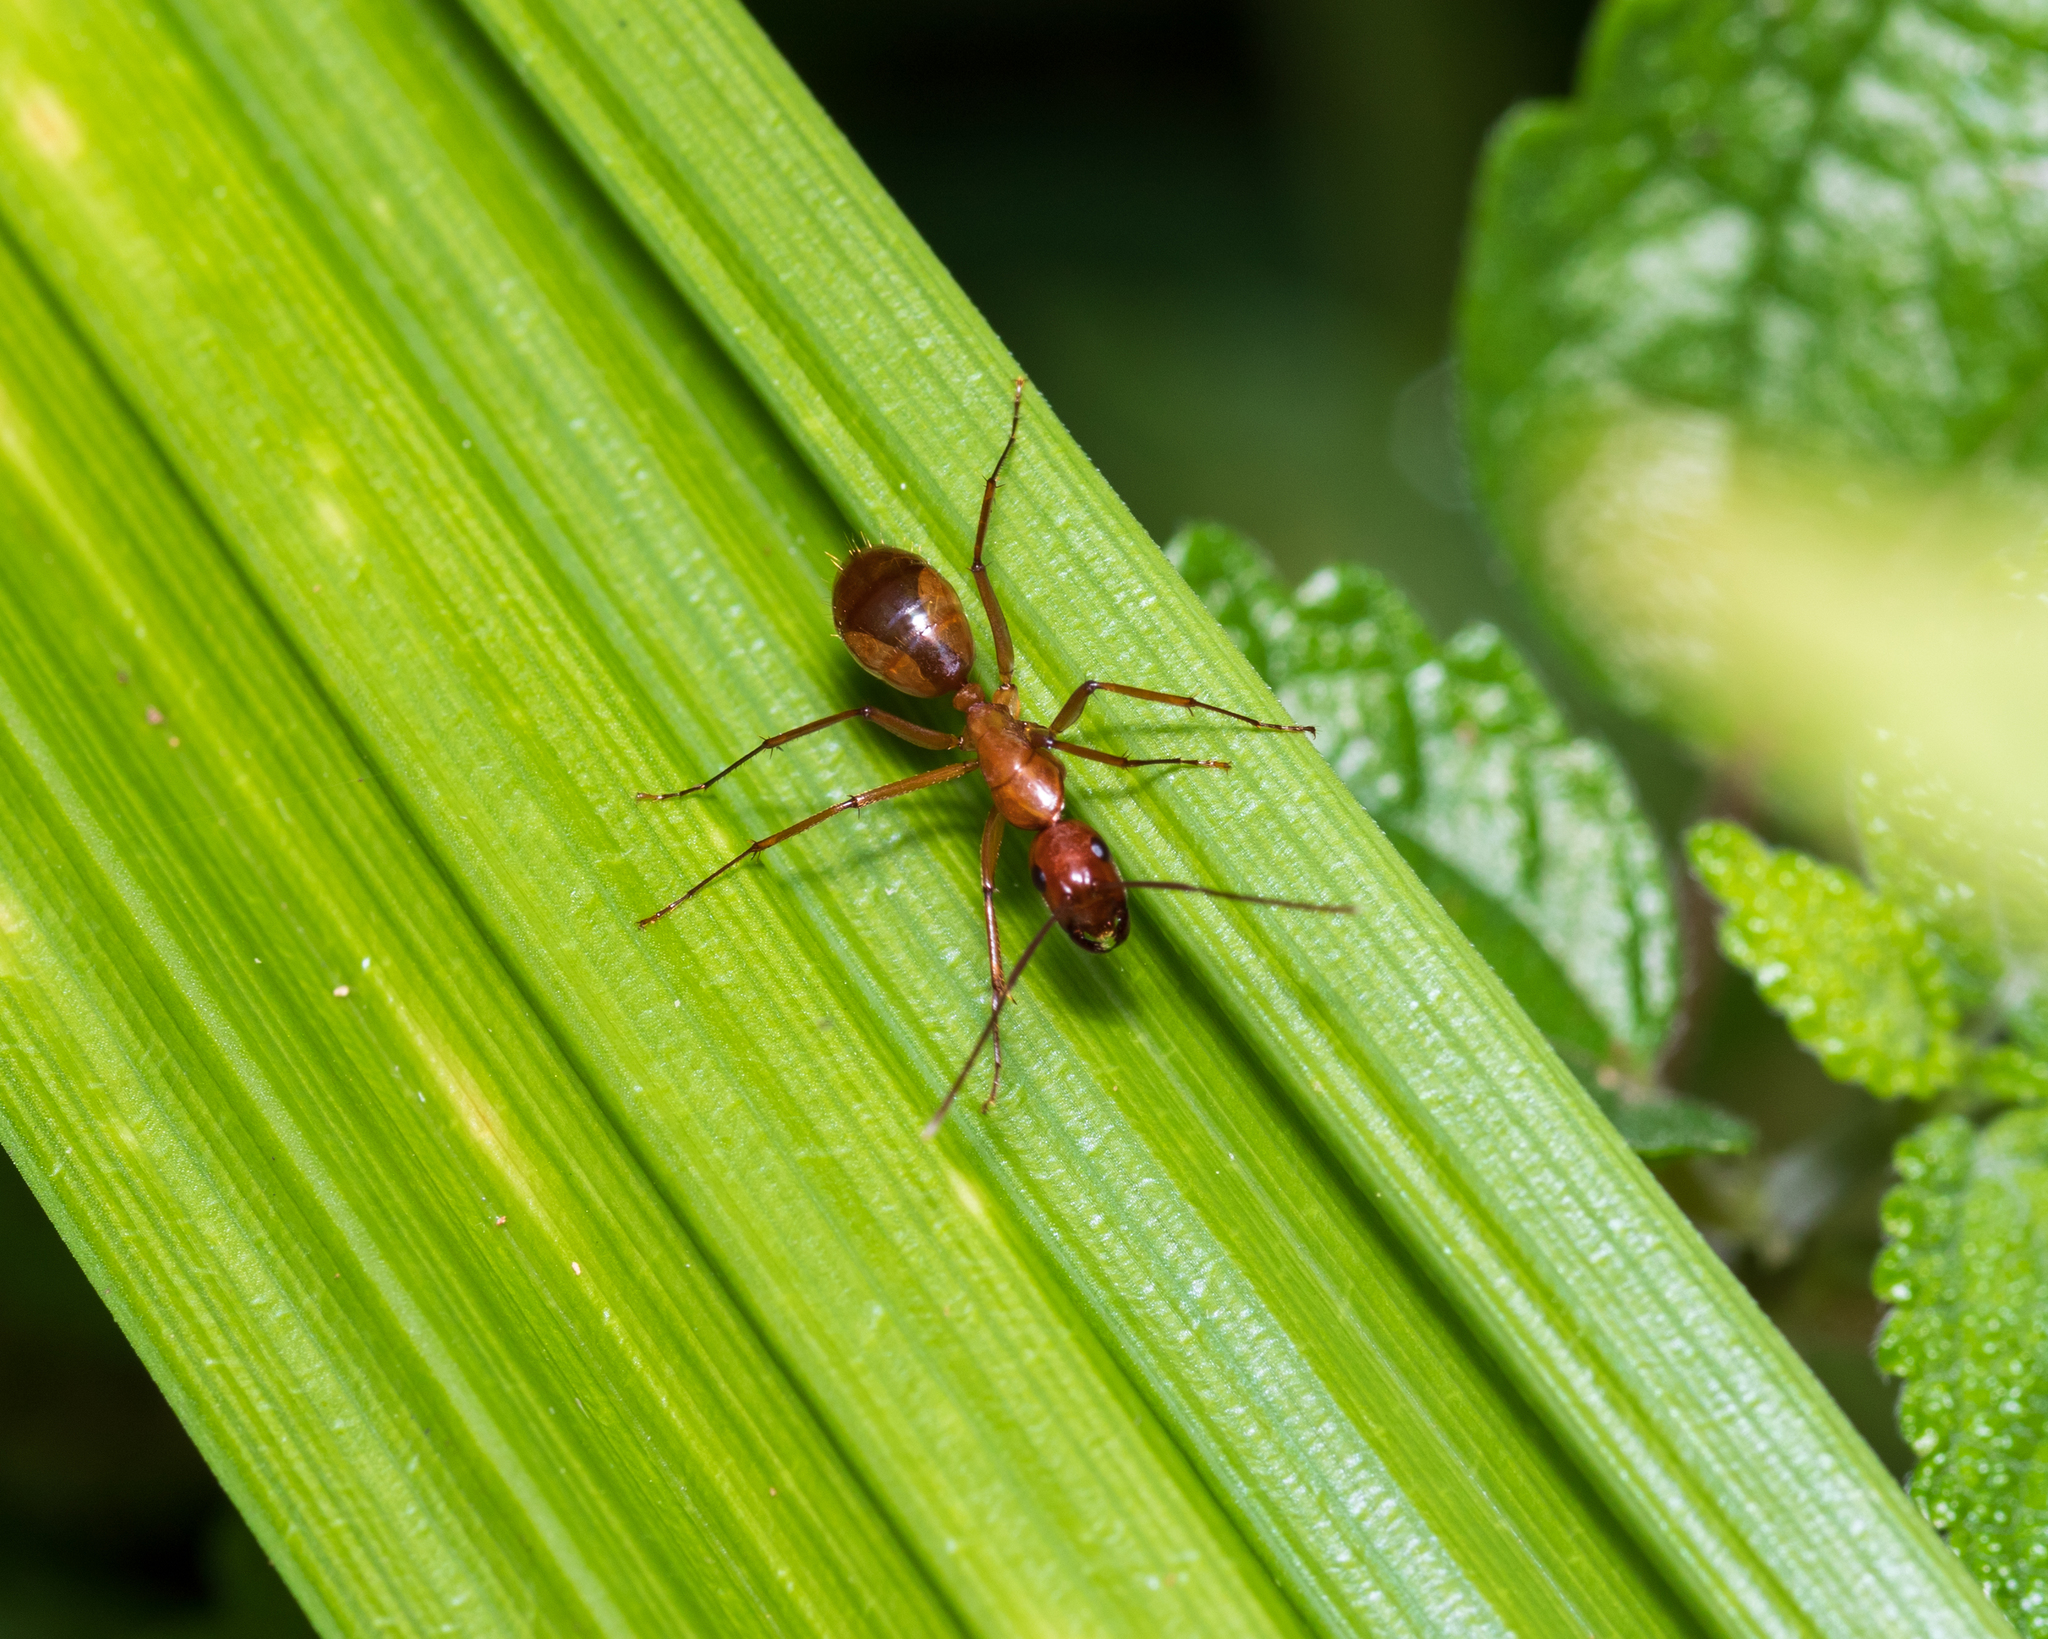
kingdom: Animalia
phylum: Arthropoda
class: Insecta
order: Hymenoptera
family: Formicidae
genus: Camponotus
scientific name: Camponotus castaneus
